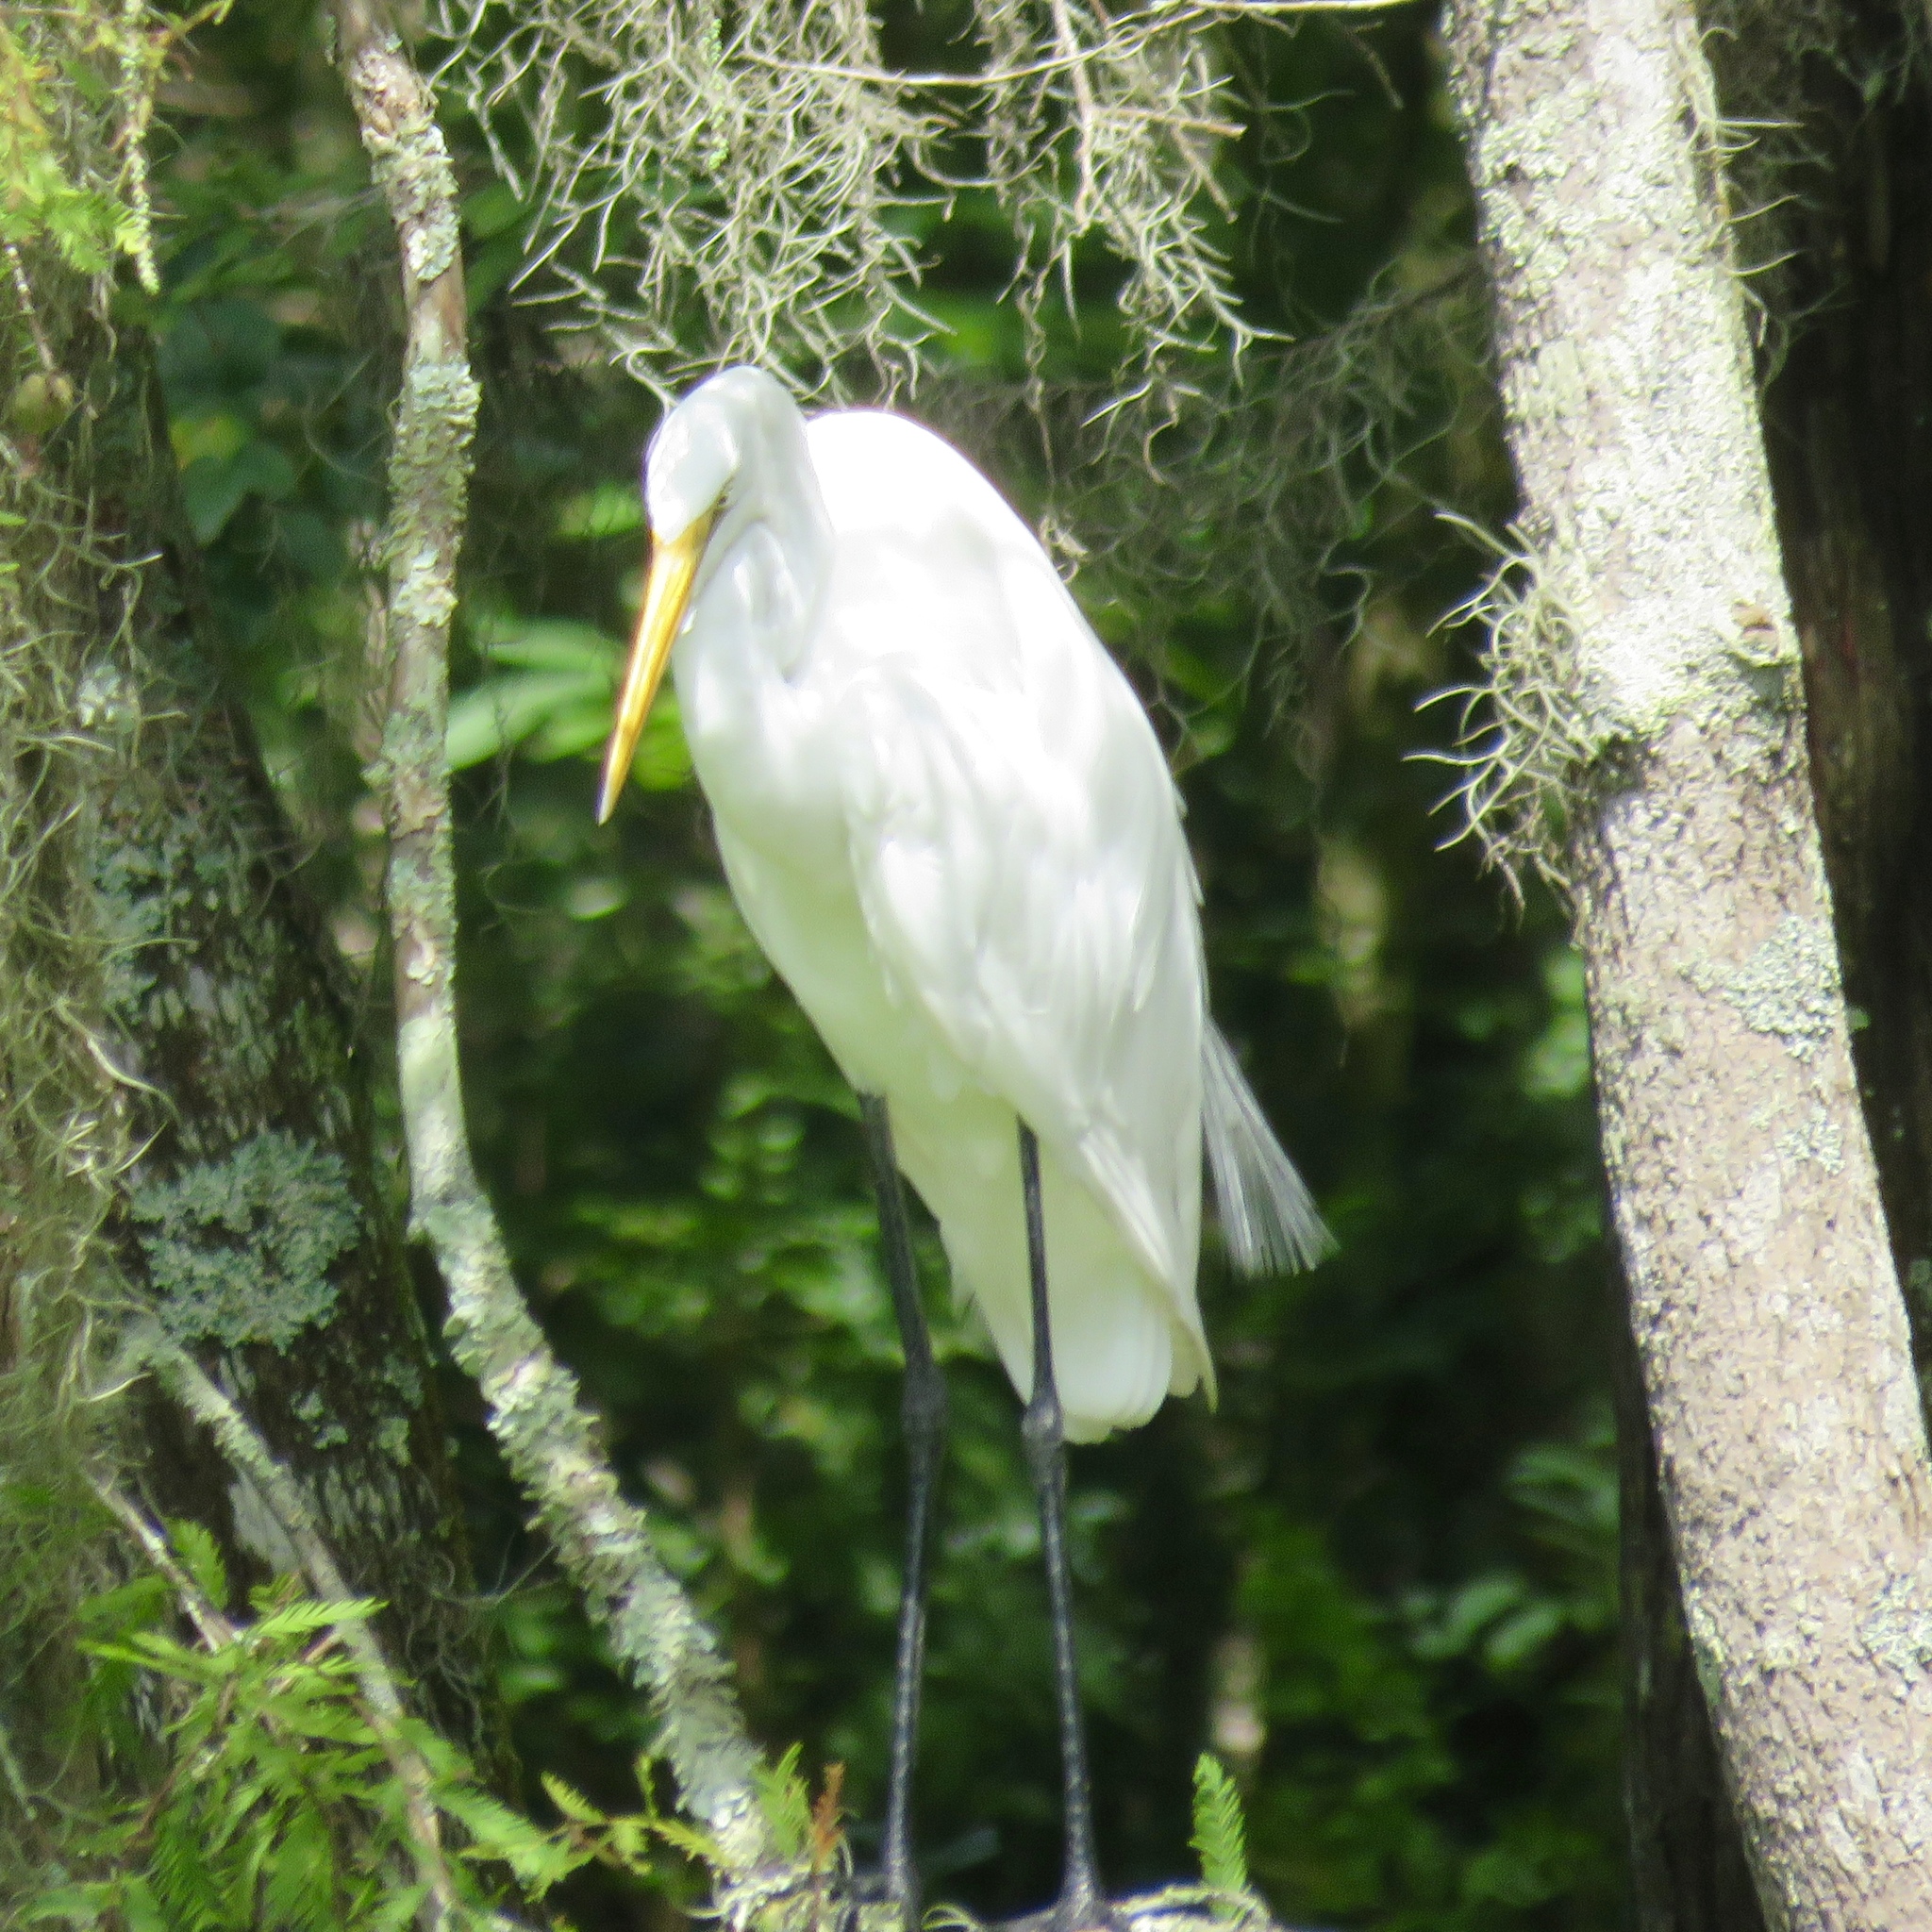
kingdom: Animalia
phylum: Chordata
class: Aves
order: Pelecaniformes
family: Ardeidae
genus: Ardea
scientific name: Ardea alba
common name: Great egret
